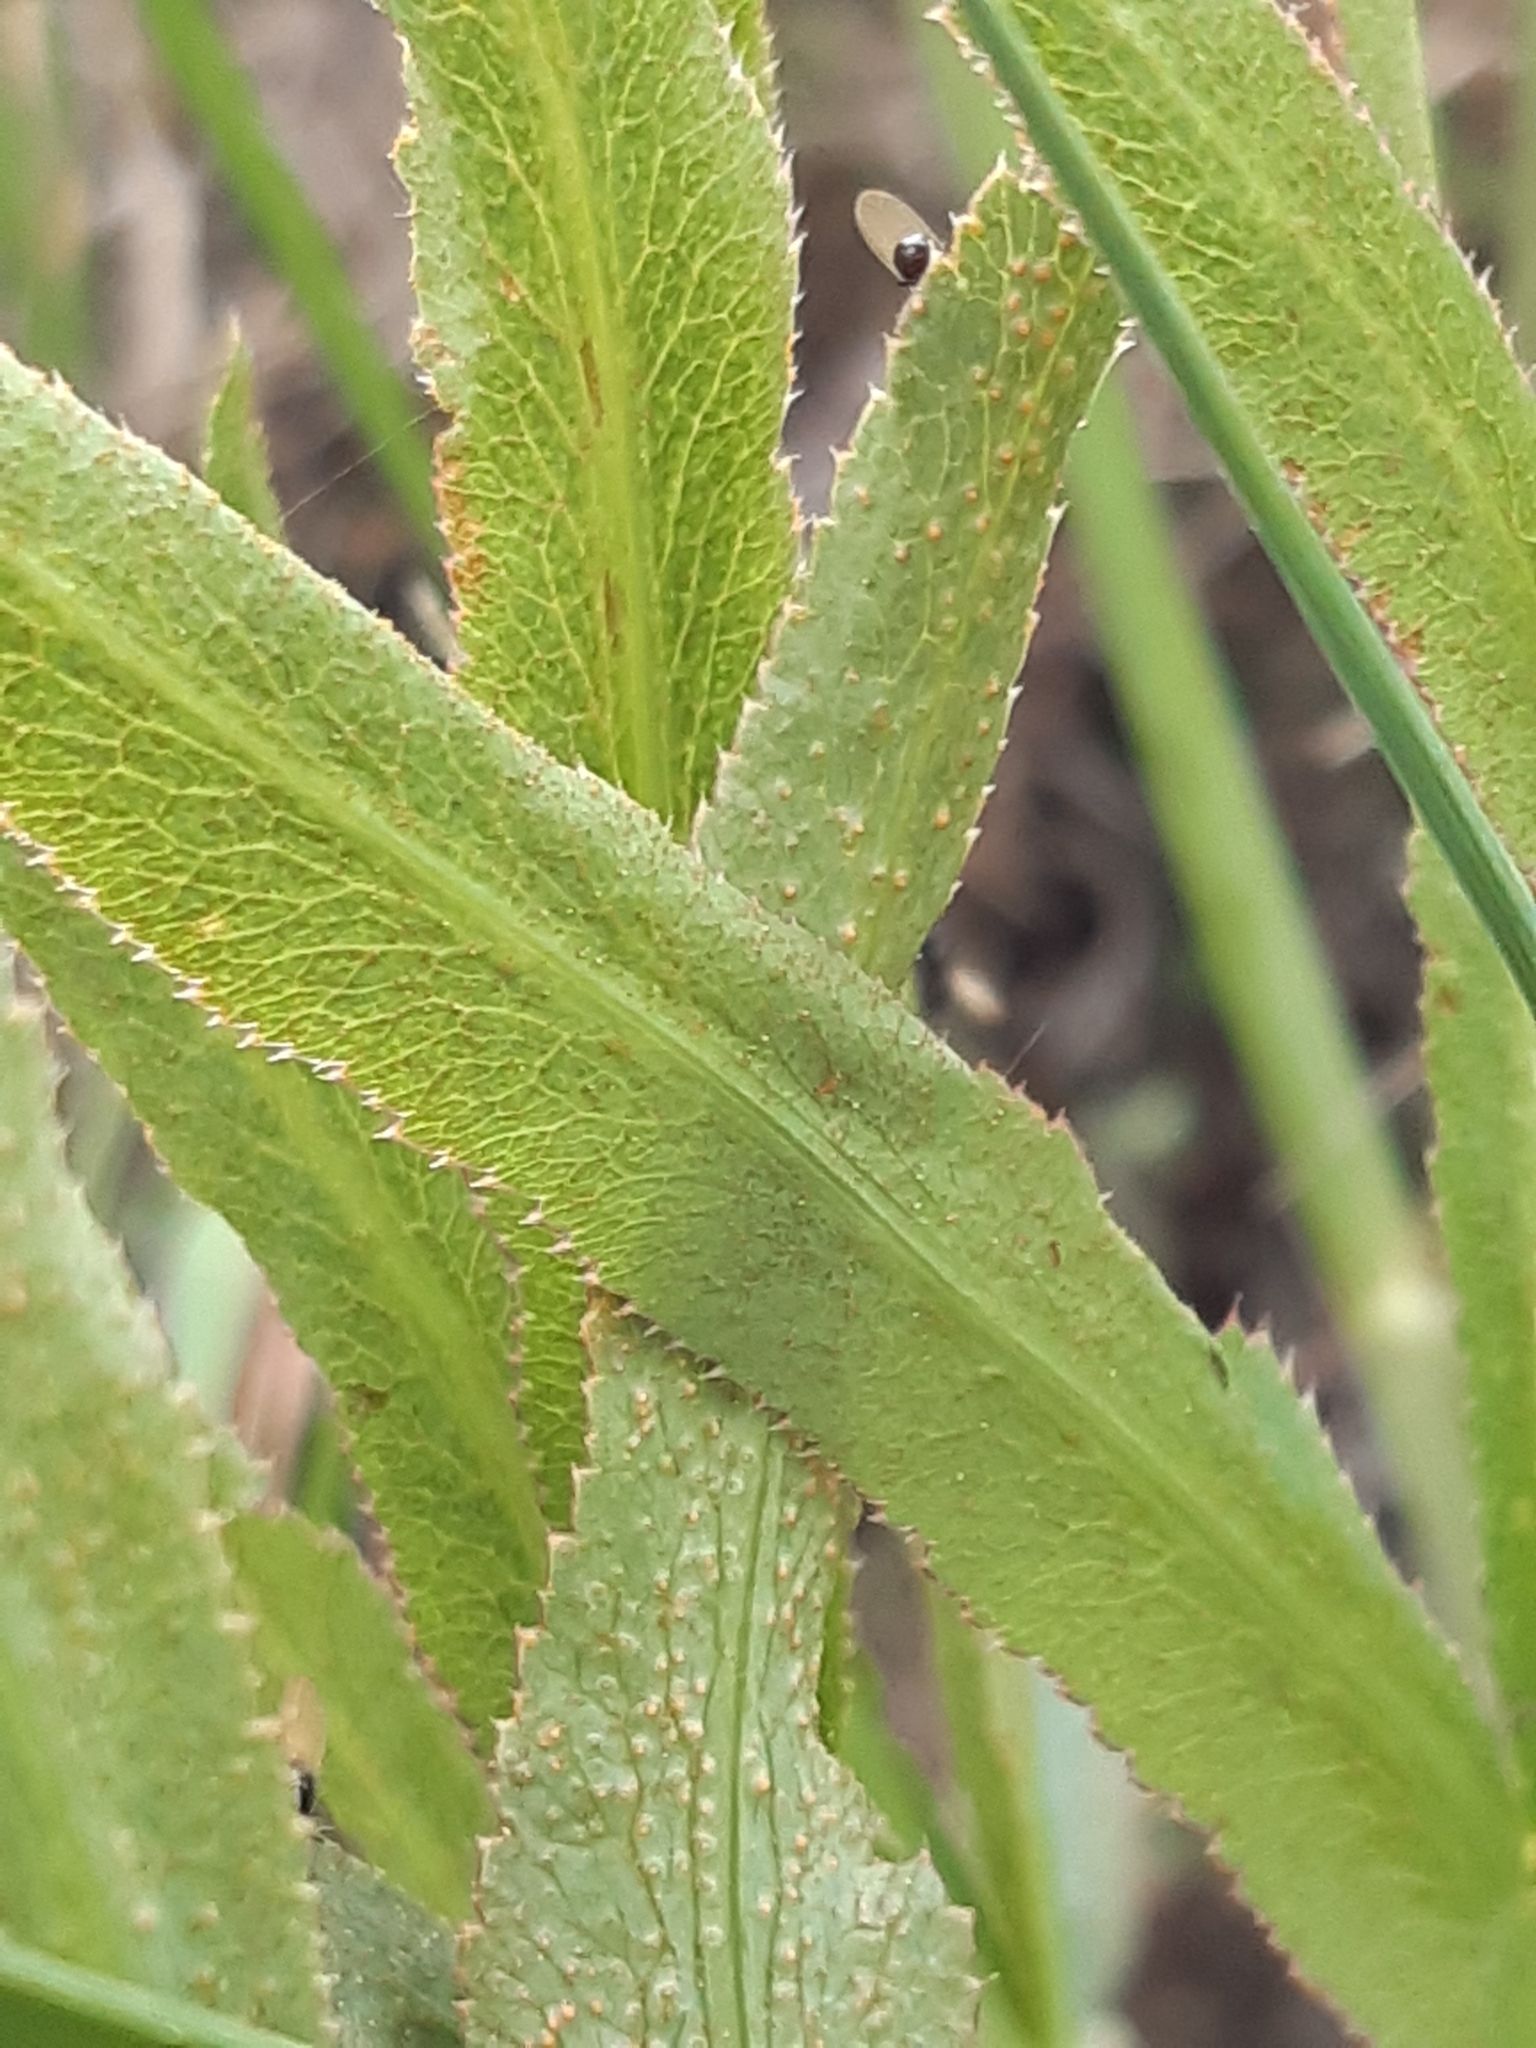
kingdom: Fungi
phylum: Basidiomycota
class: Pucciniomycetes
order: Pucciniales
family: Pucciniaceae
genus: Puccinia
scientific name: Puccinia sii-falcariae
